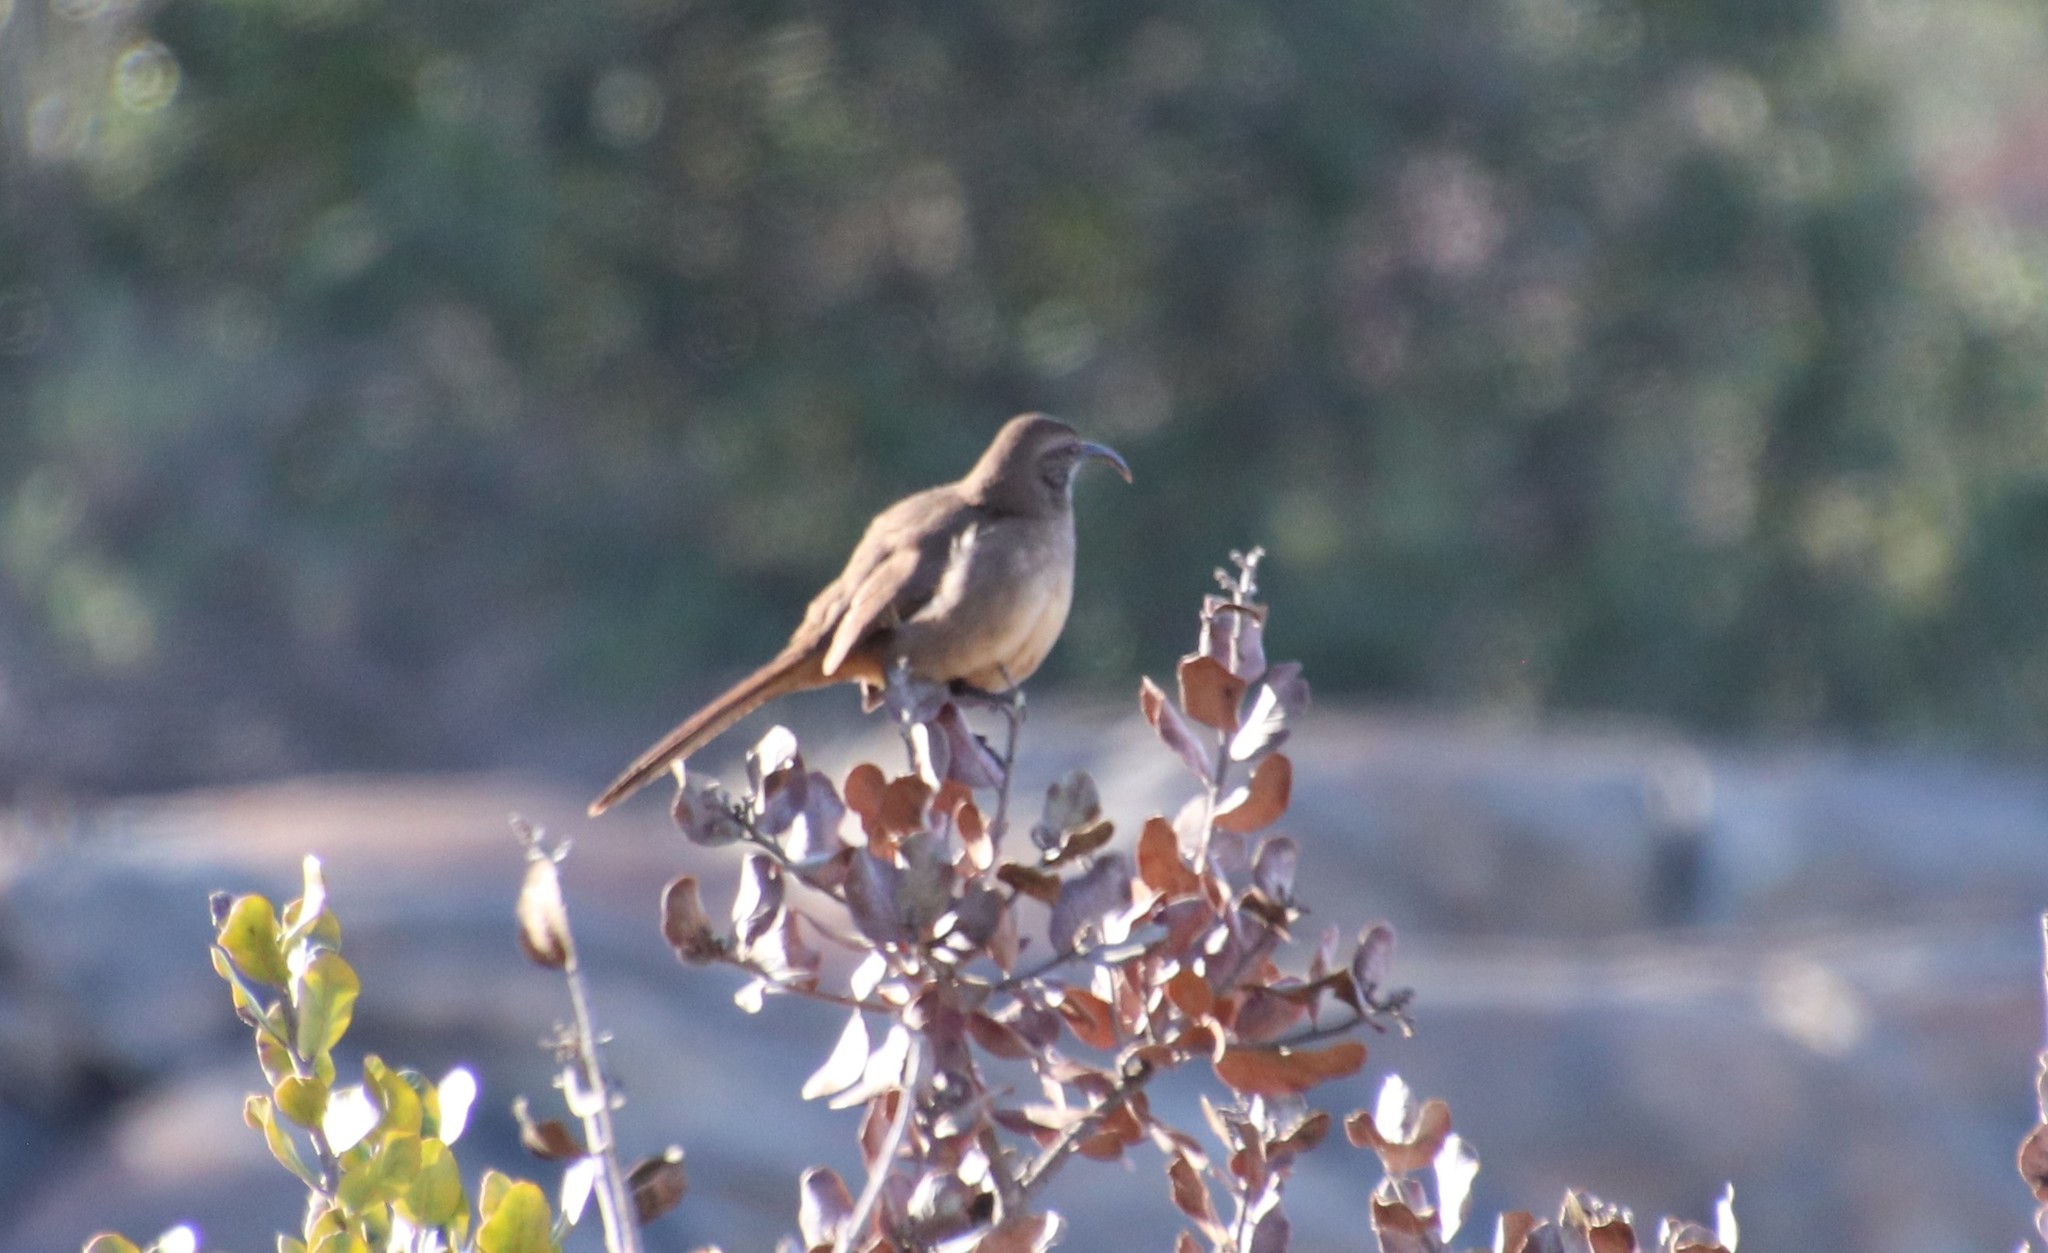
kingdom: Animalia
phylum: Chordata
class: Aves
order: Passeriformes
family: Mimidae
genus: Toxostoma
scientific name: Toxostoma redivivum
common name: California thrasher
